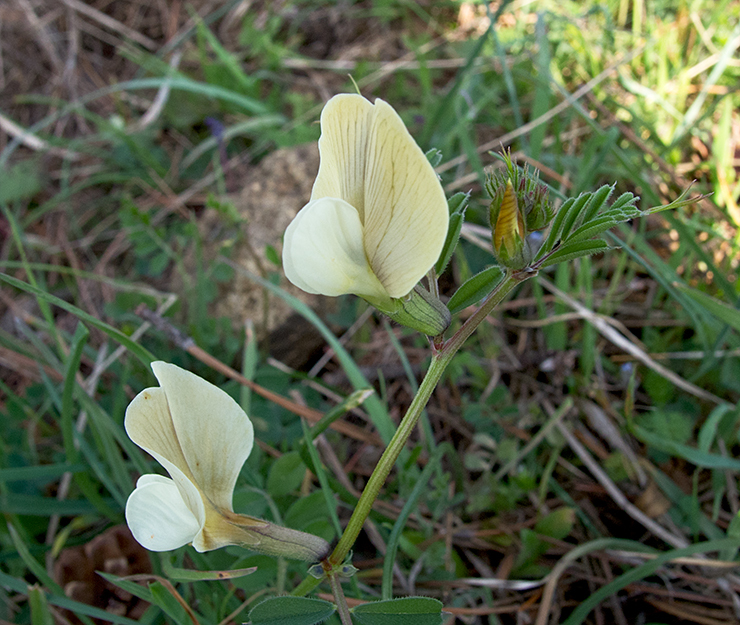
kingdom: Plantae
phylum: Tracheophyta
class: Magnoliopsida
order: Fabales
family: Fabaceae
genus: Vicia
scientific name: Vicia grandiflora
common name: Large yellow vetch
